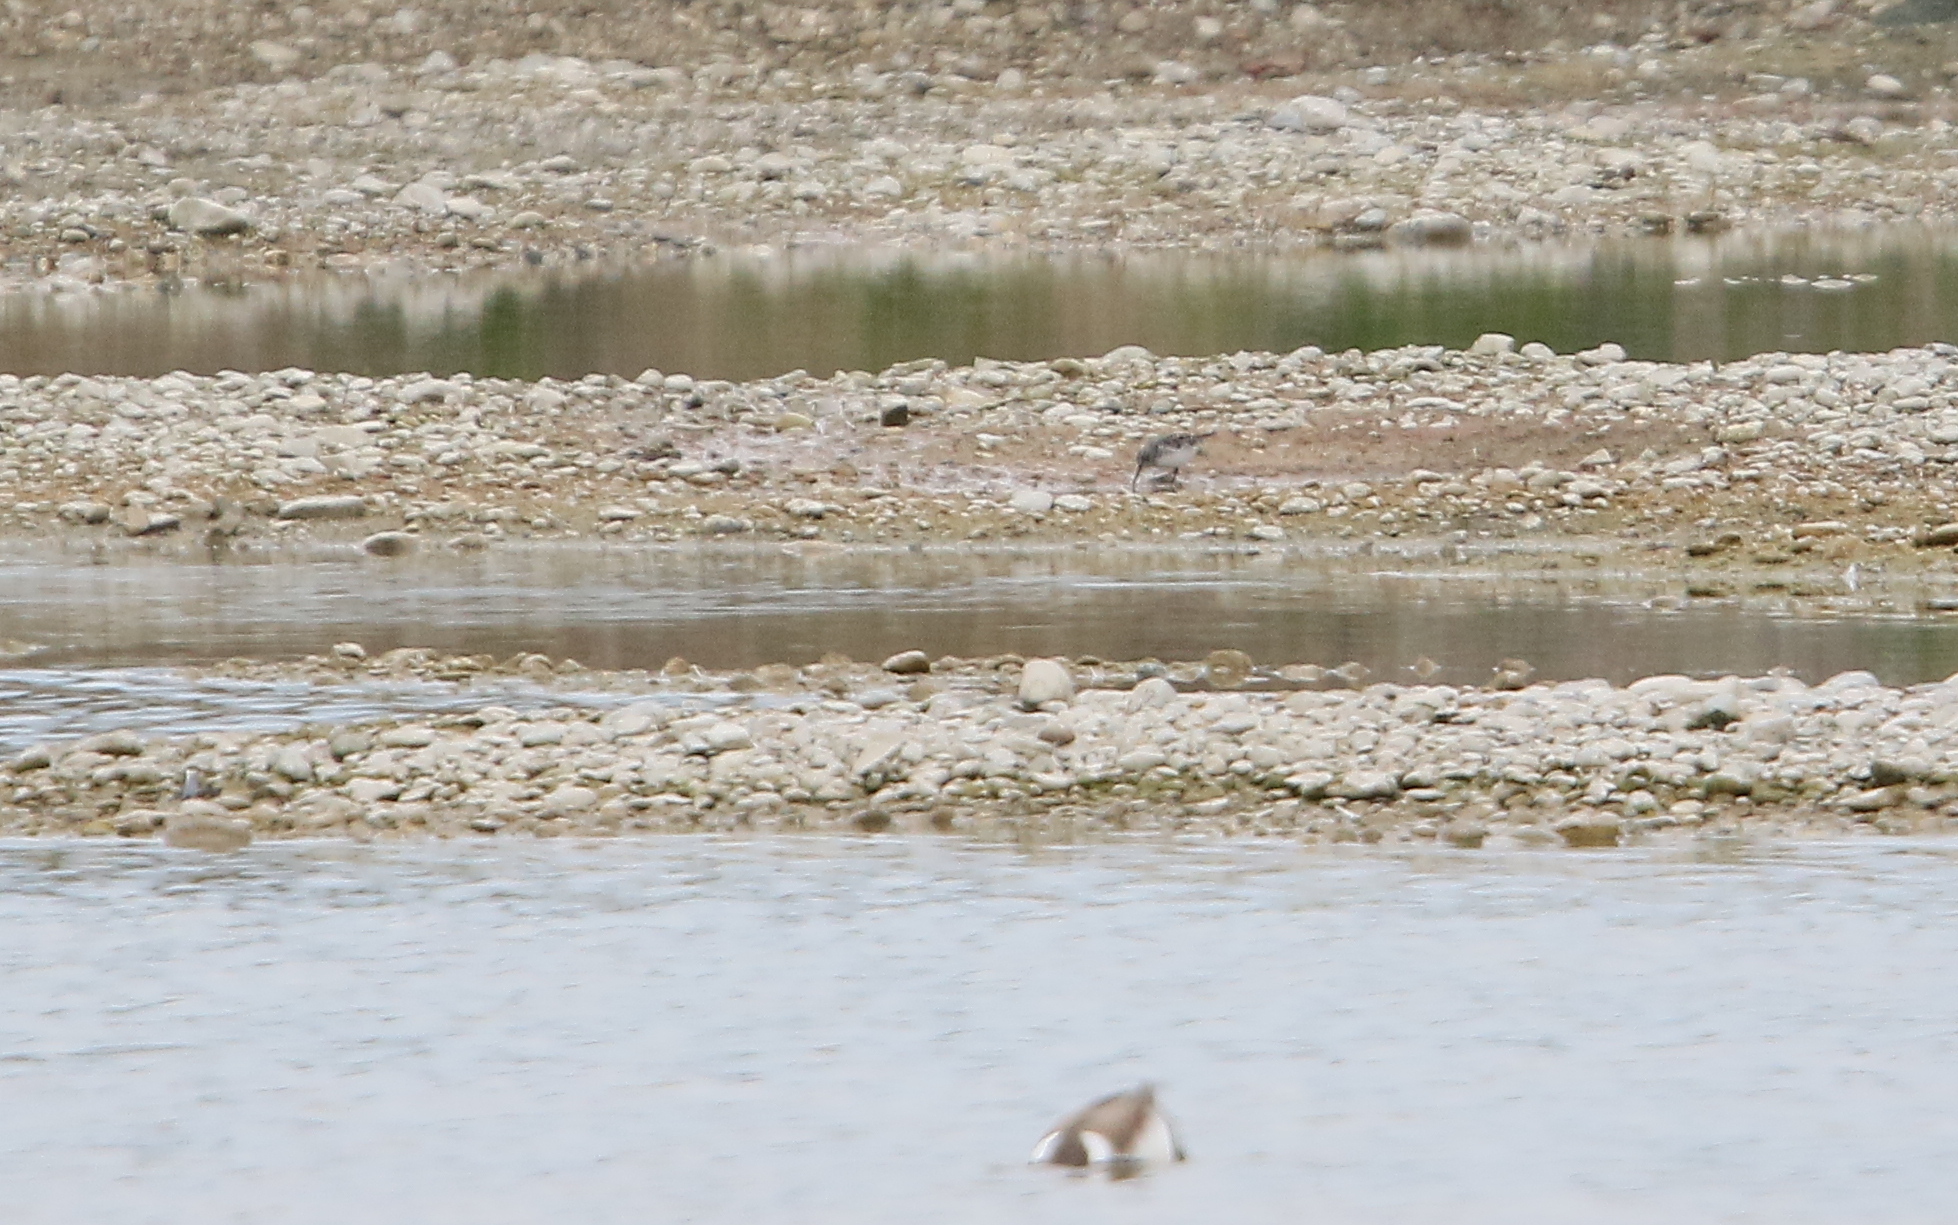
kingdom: Animalia
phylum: Chordata
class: Aves
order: Charadriiformes
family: Scolopacidae
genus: Calidris
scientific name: Calidris falcinellus
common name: Broad-billed sandpiper
